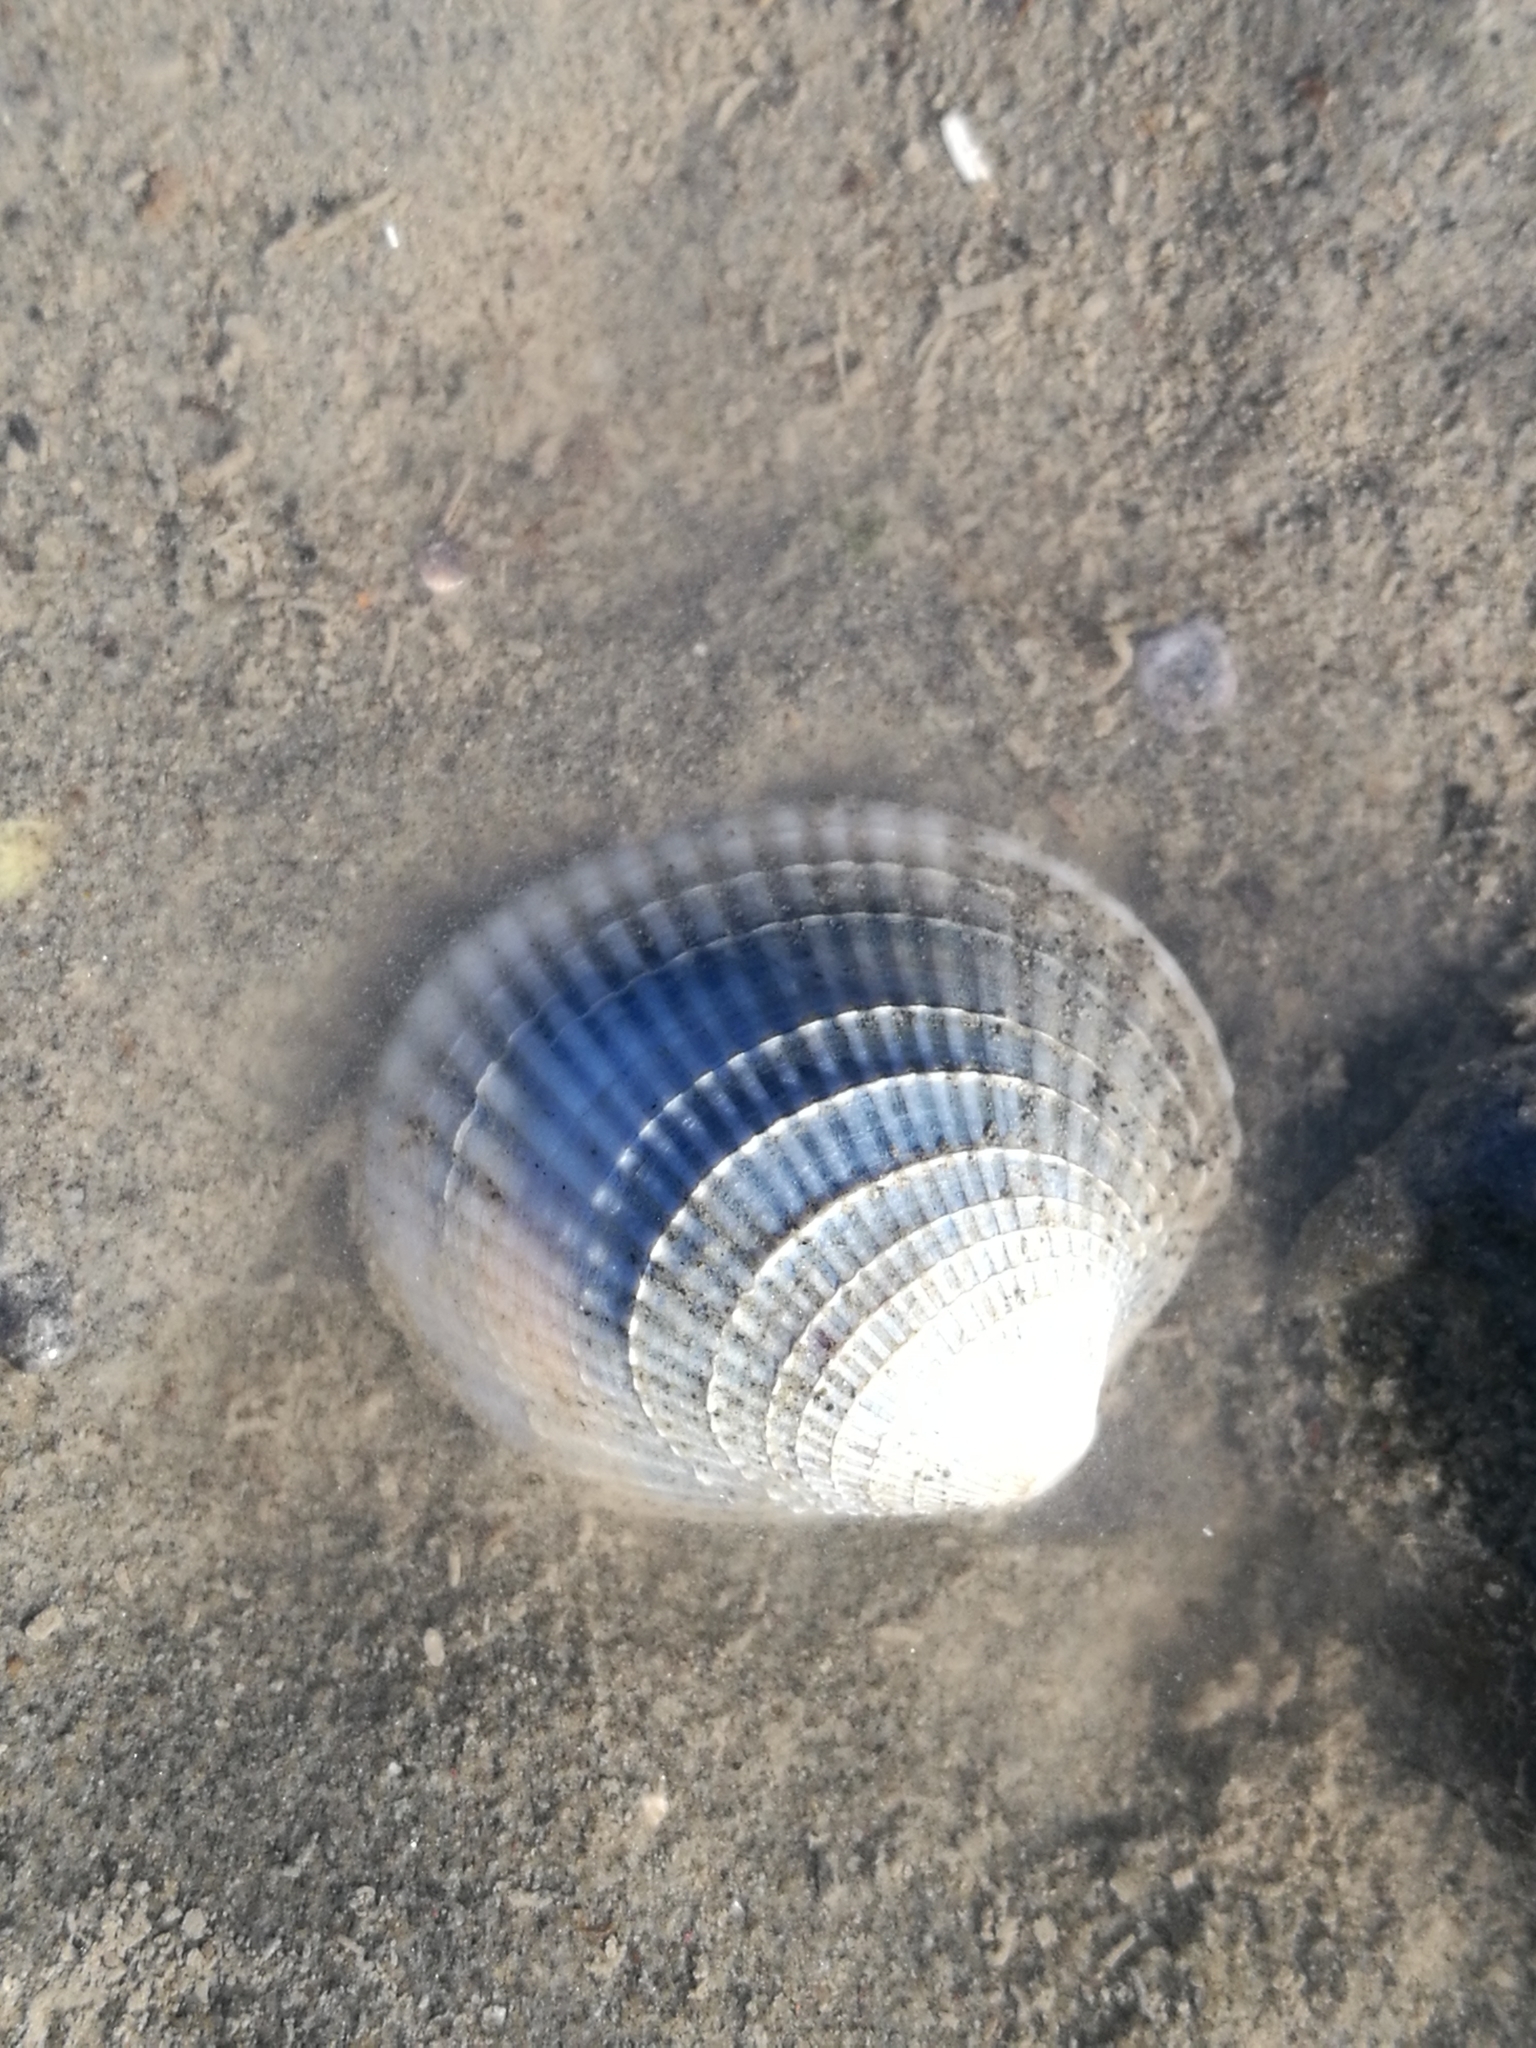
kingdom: Animalia
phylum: Mollusca
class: Bivalvia
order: Venerida
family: Veneridae
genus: Austrovenus
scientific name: Austrovenus stutchburyi
